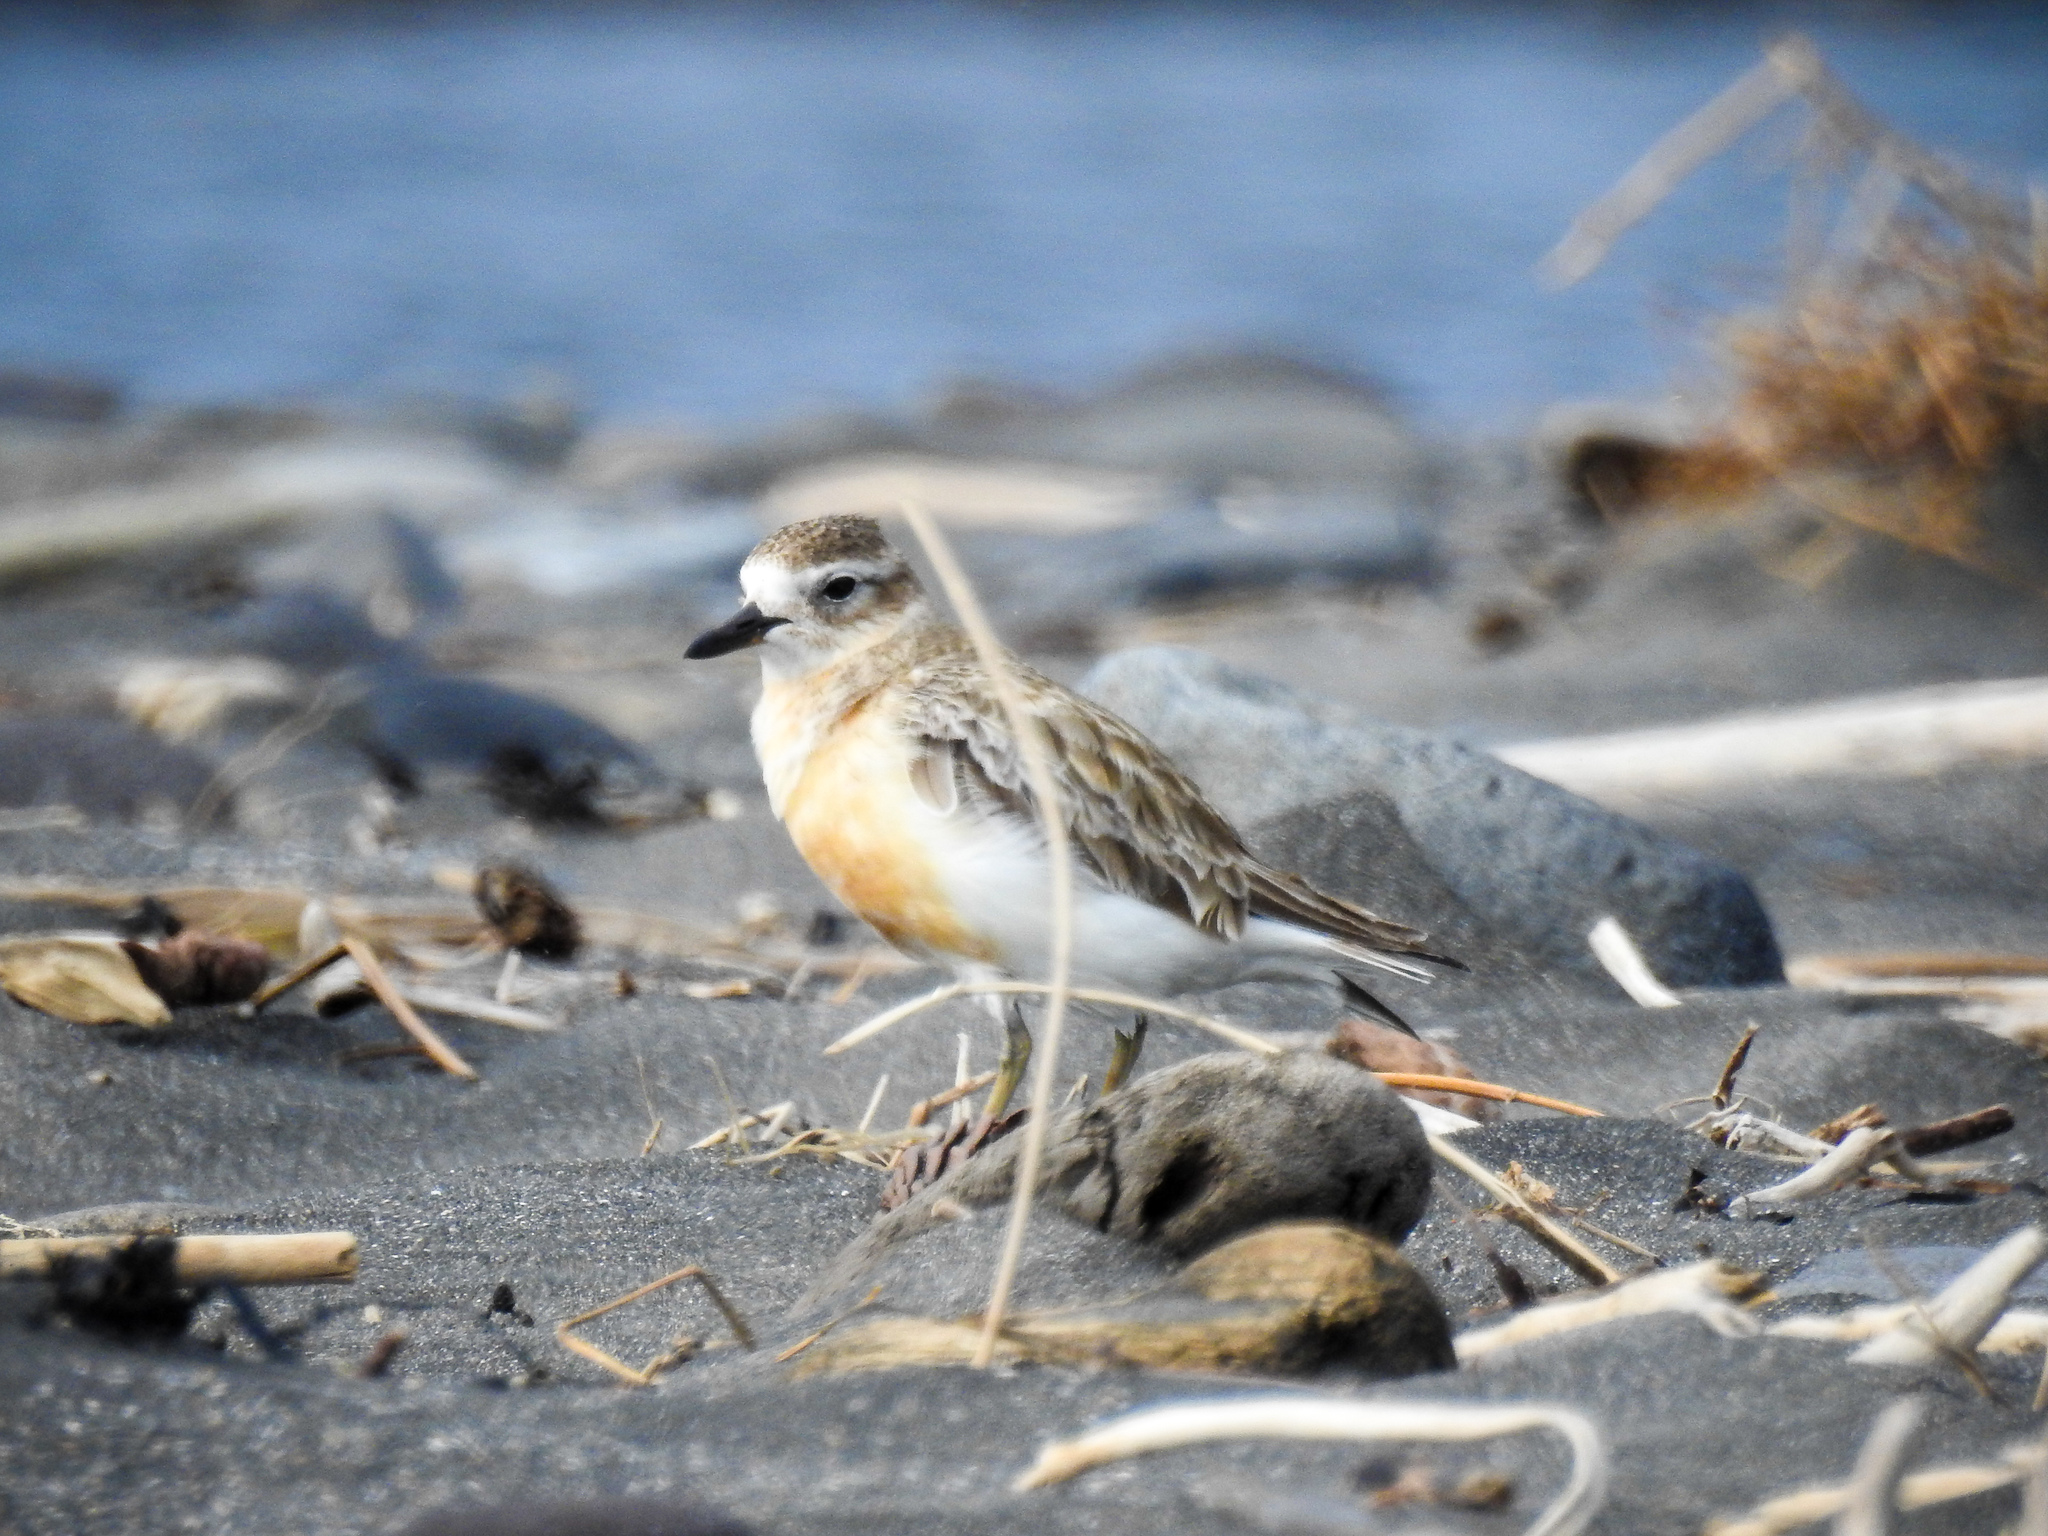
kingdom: Animalia
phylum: Chordata
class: Aves
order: Charadriiformes
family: Charadriidae
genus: Anarhynchus
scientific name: Anarhynchus
